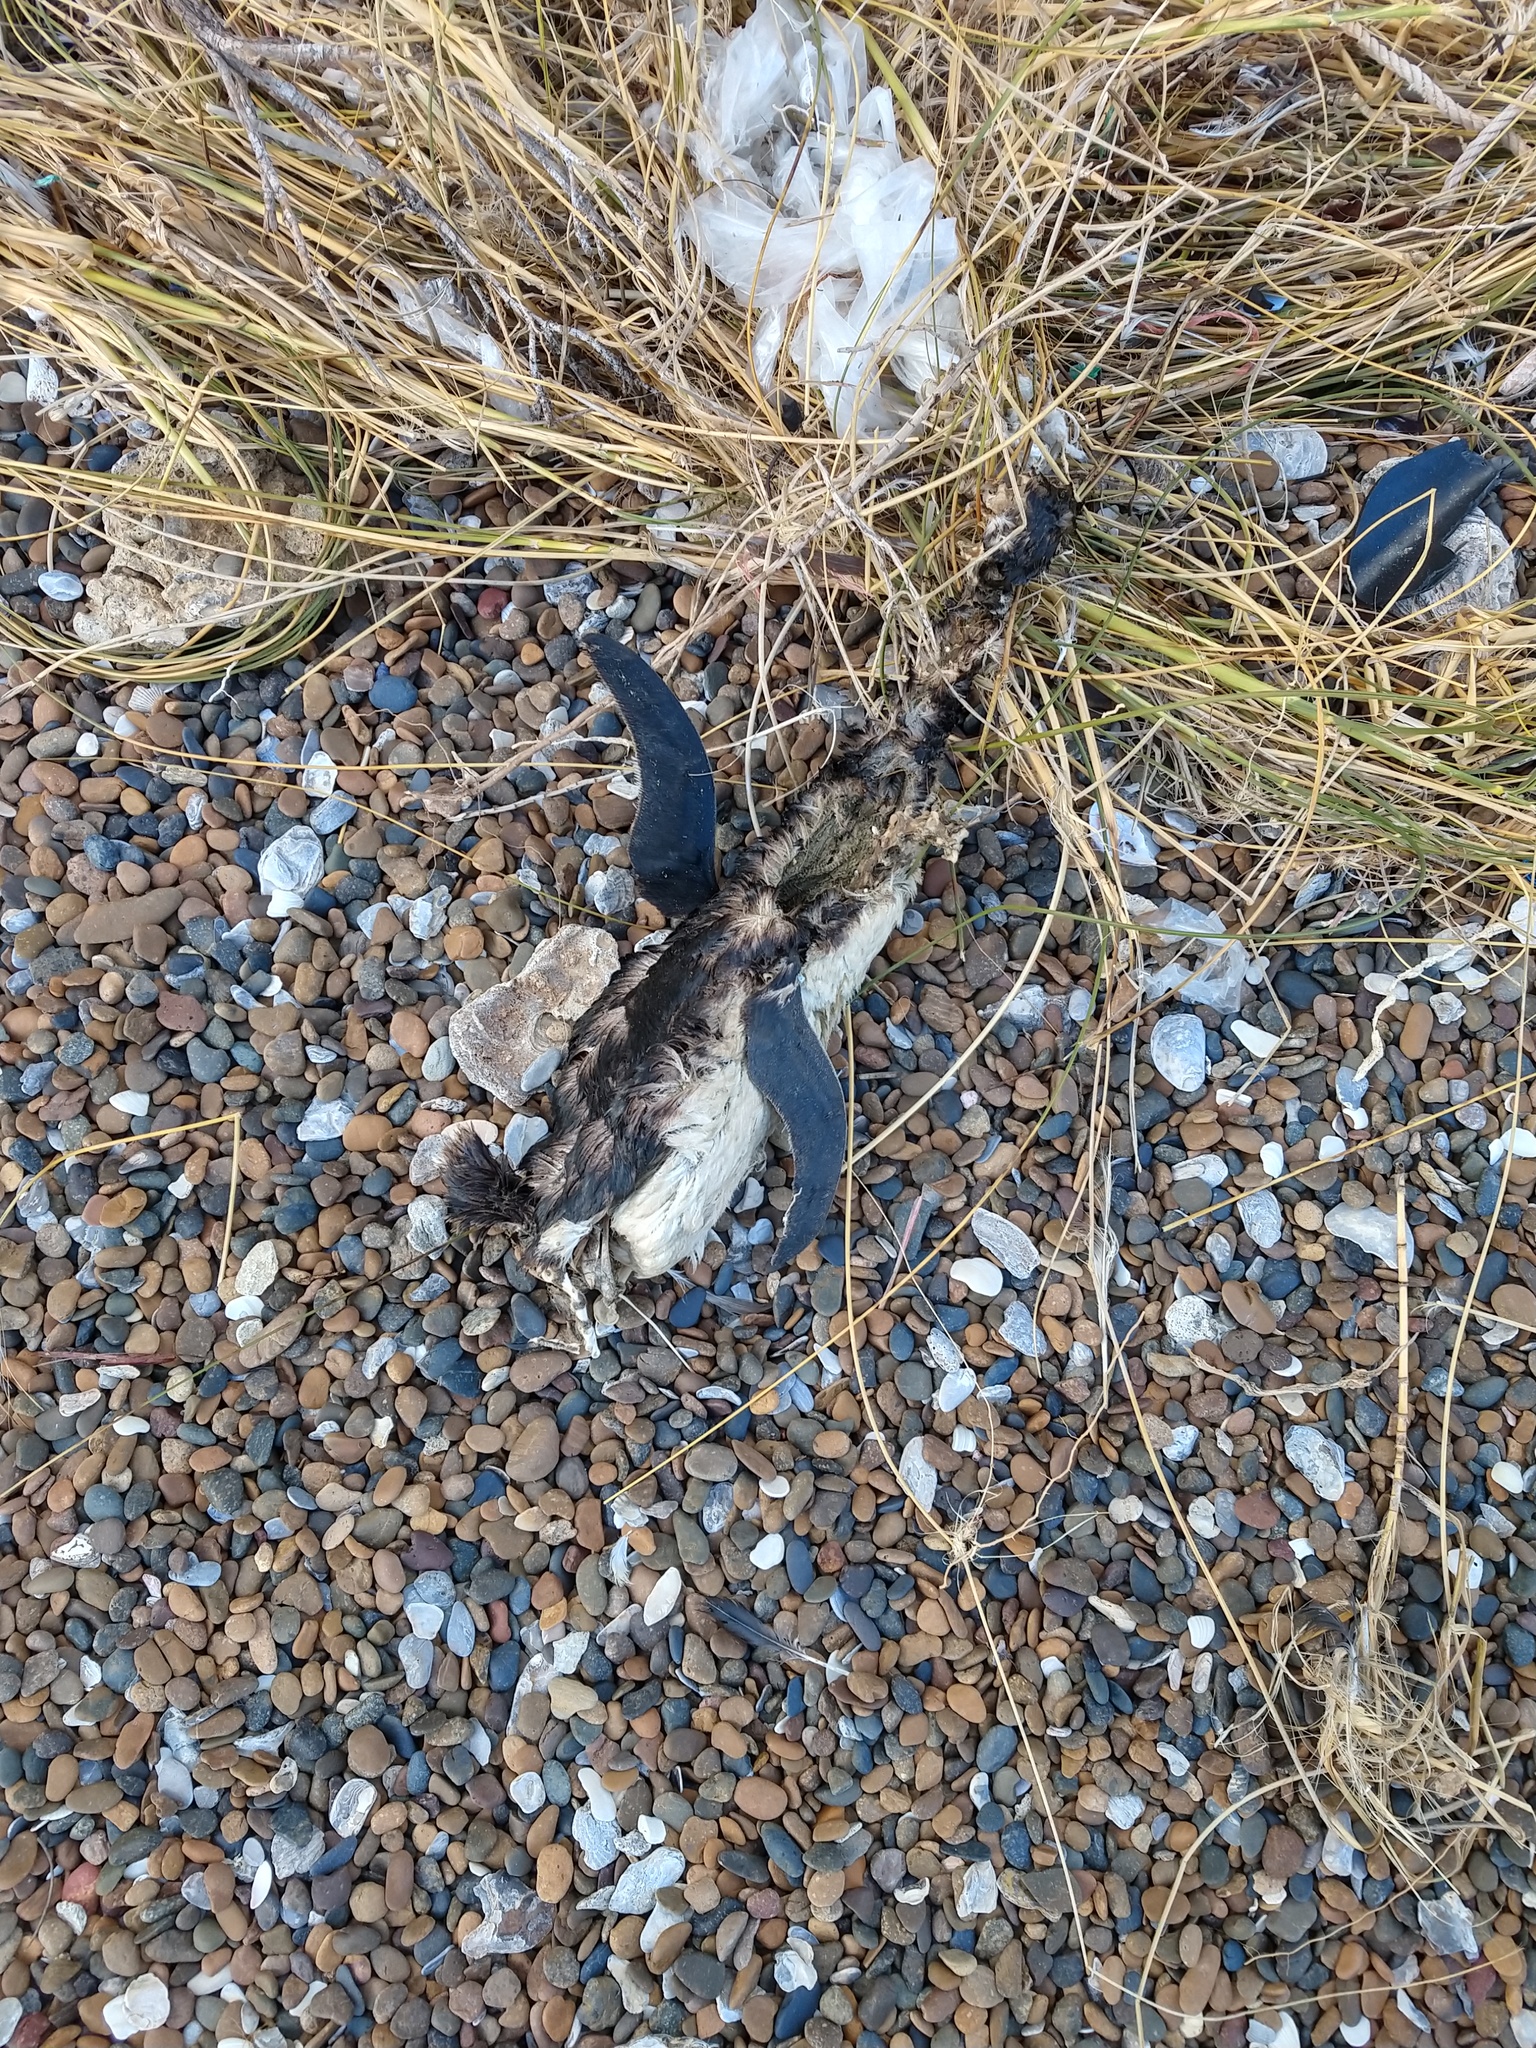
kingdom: Animalia
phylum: Chordata
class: Aves
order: Sphenisciformes
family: Spheniscidae
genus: Spheniscus
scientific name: Spheniscus magellanicus
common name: Magellanic penguin
